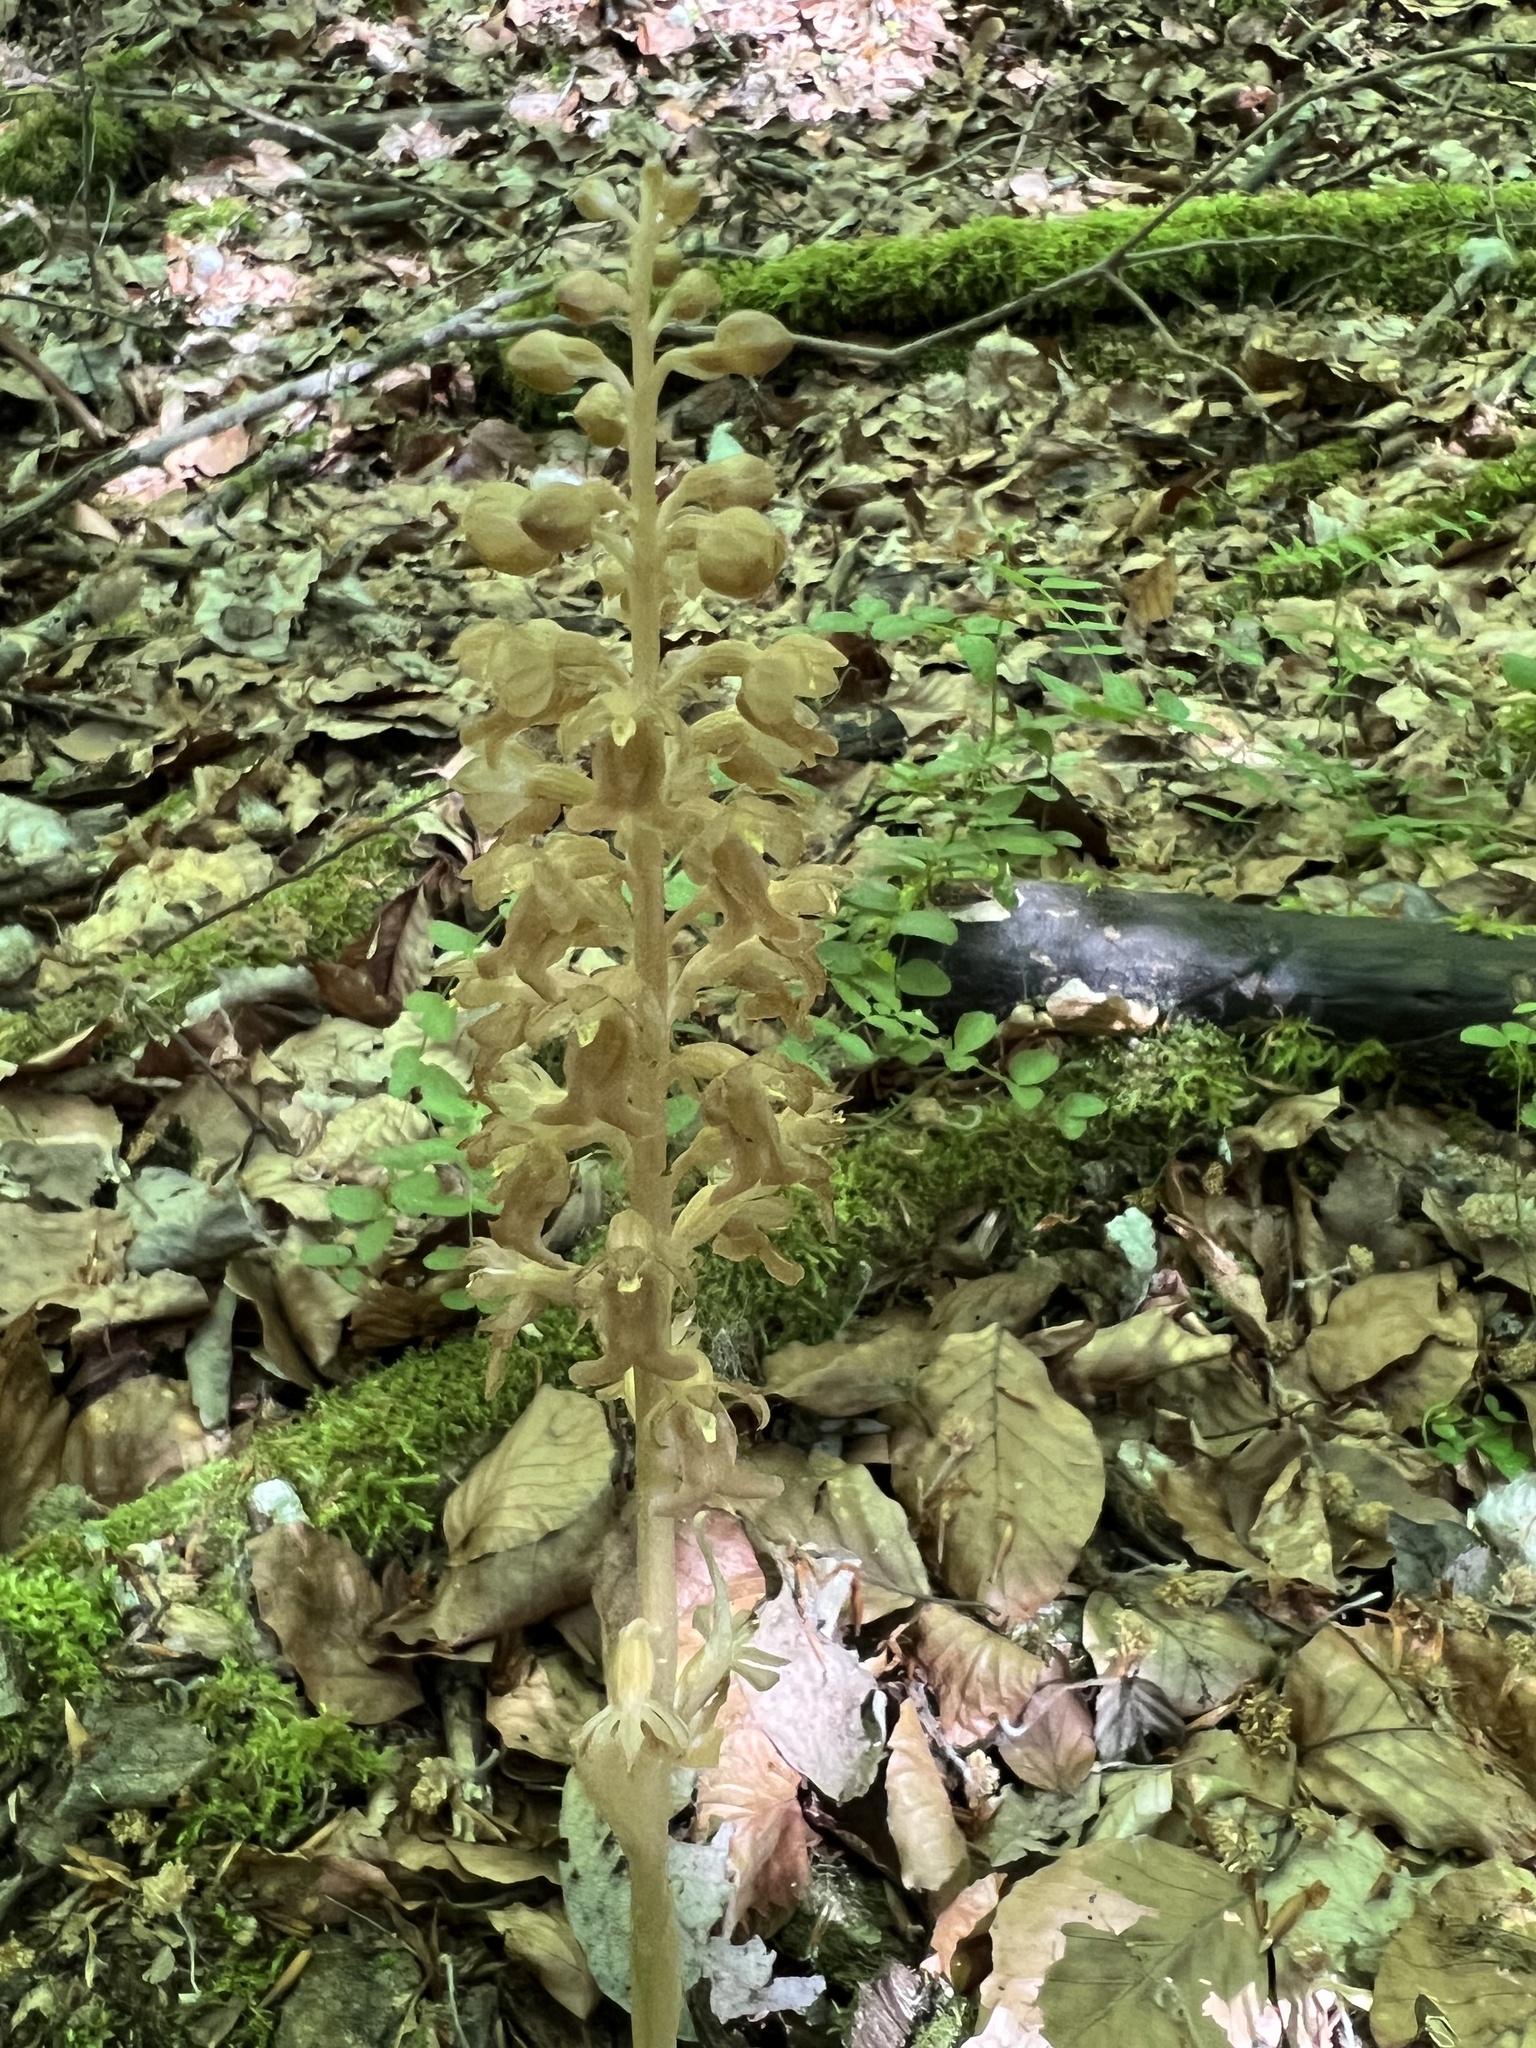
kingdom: Plantae
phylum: Tracheophyta
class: Liliopsida
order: Asparagales
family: Orchidaceae
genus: Neottia
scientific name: Neottia nidus-avis
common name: Bird's-nest orchid
